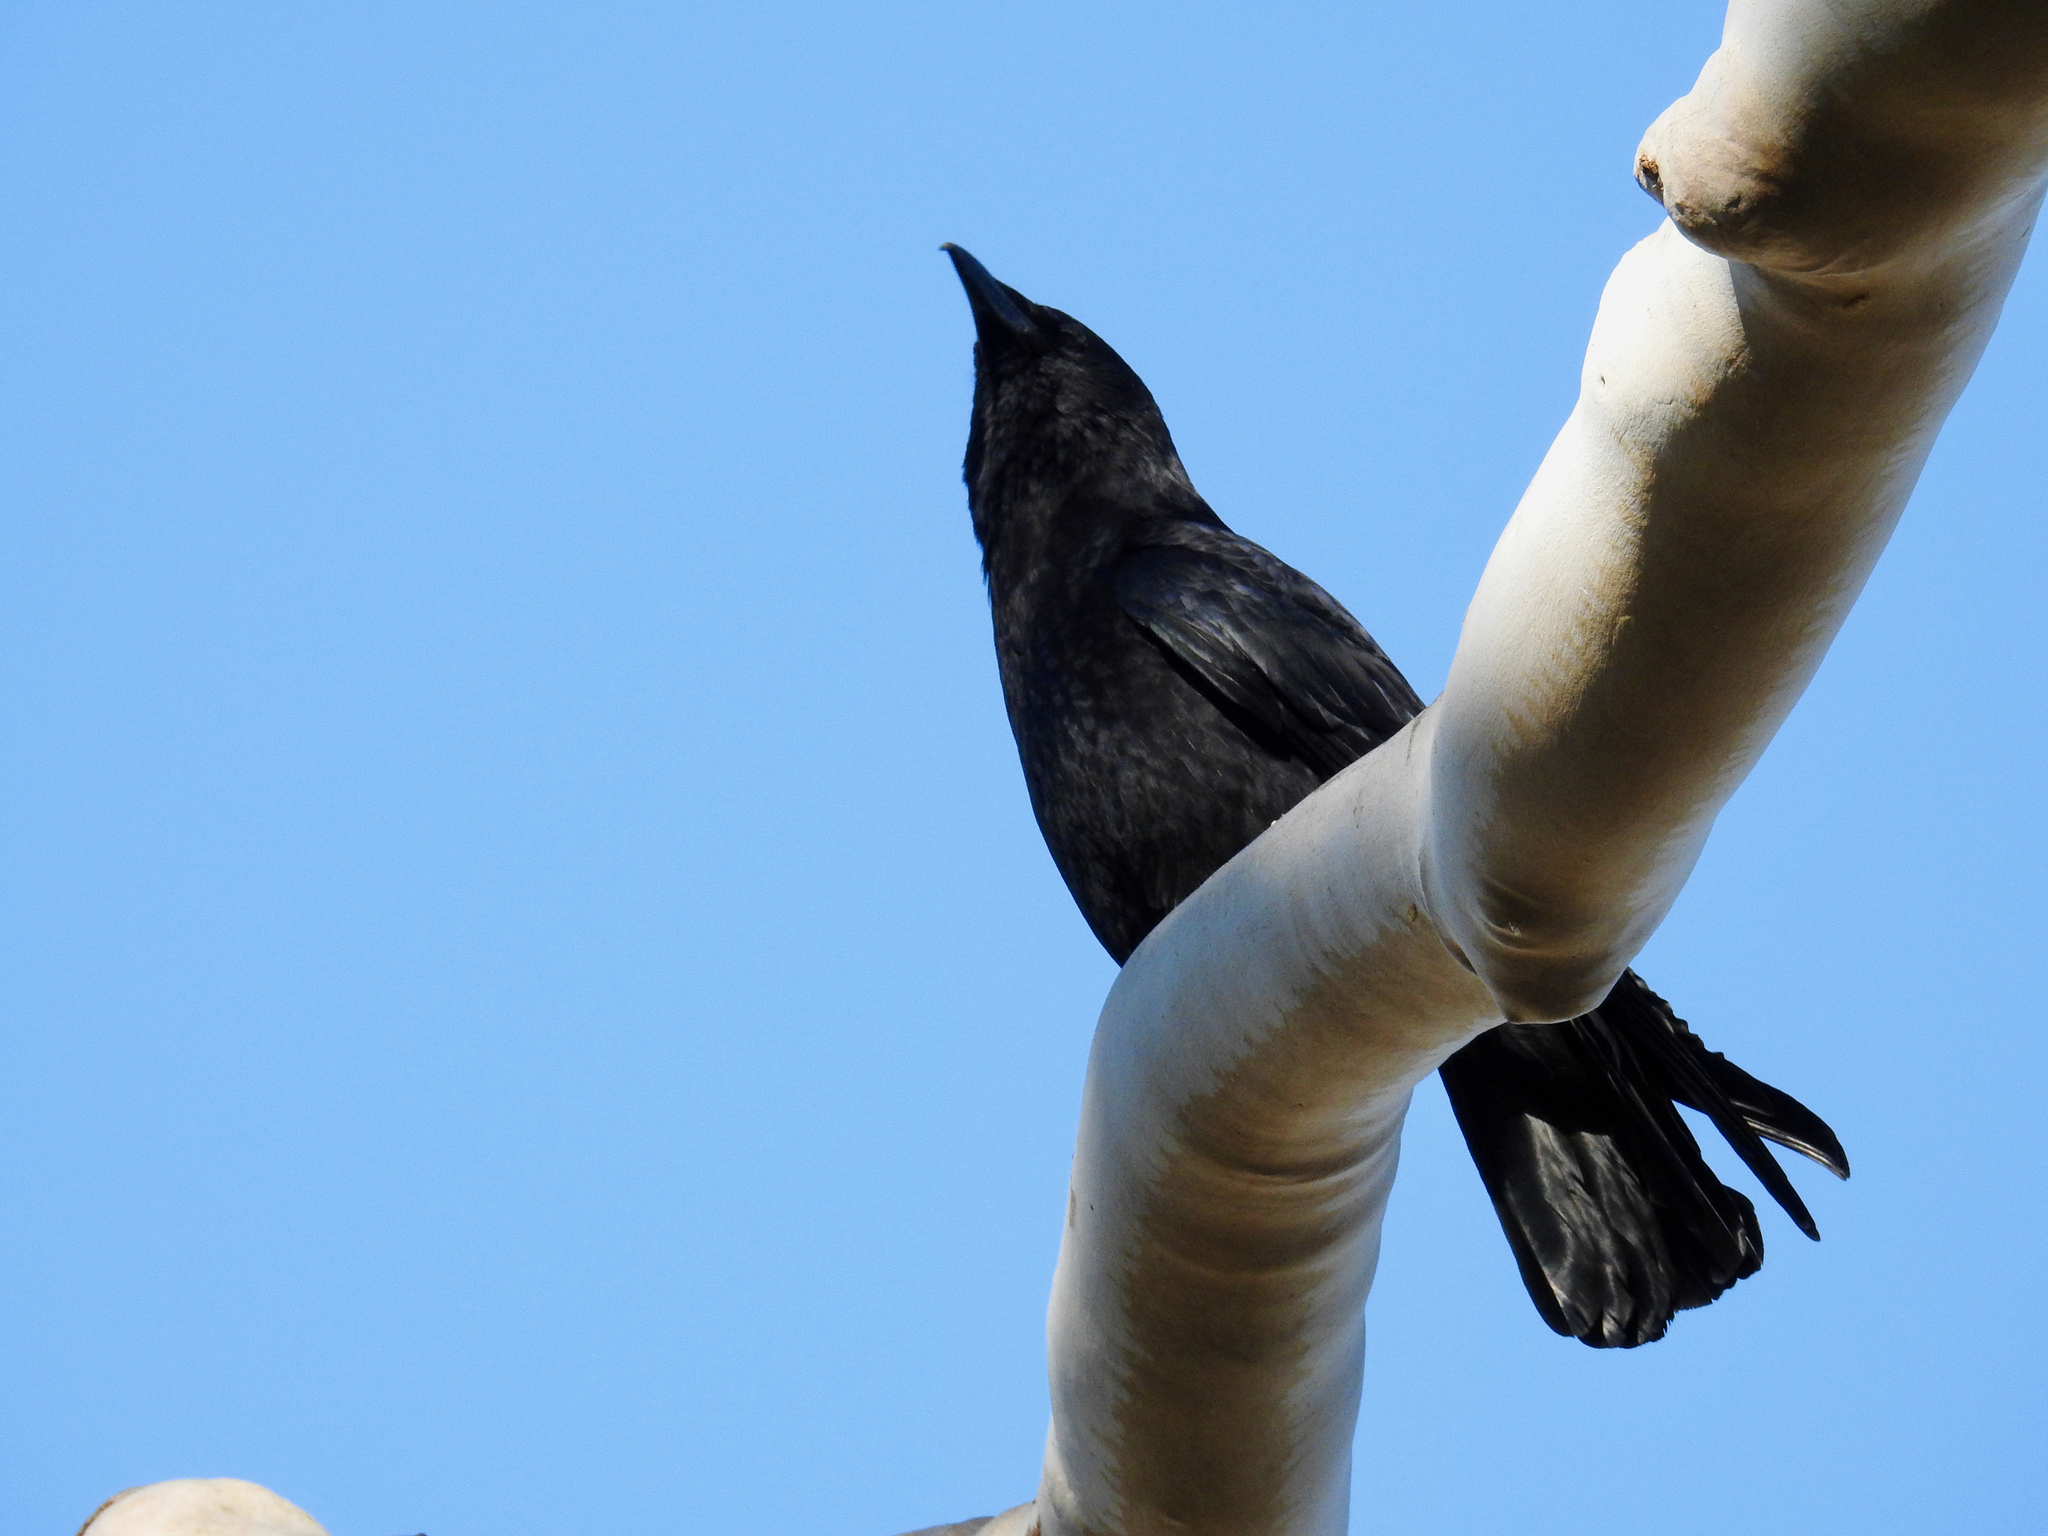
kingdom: Animalia
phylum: Chordata
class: Aves
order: Passeriformes
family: Corvidae
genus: Corvus
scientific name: Corvus brachyrhynchos
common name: American crow
